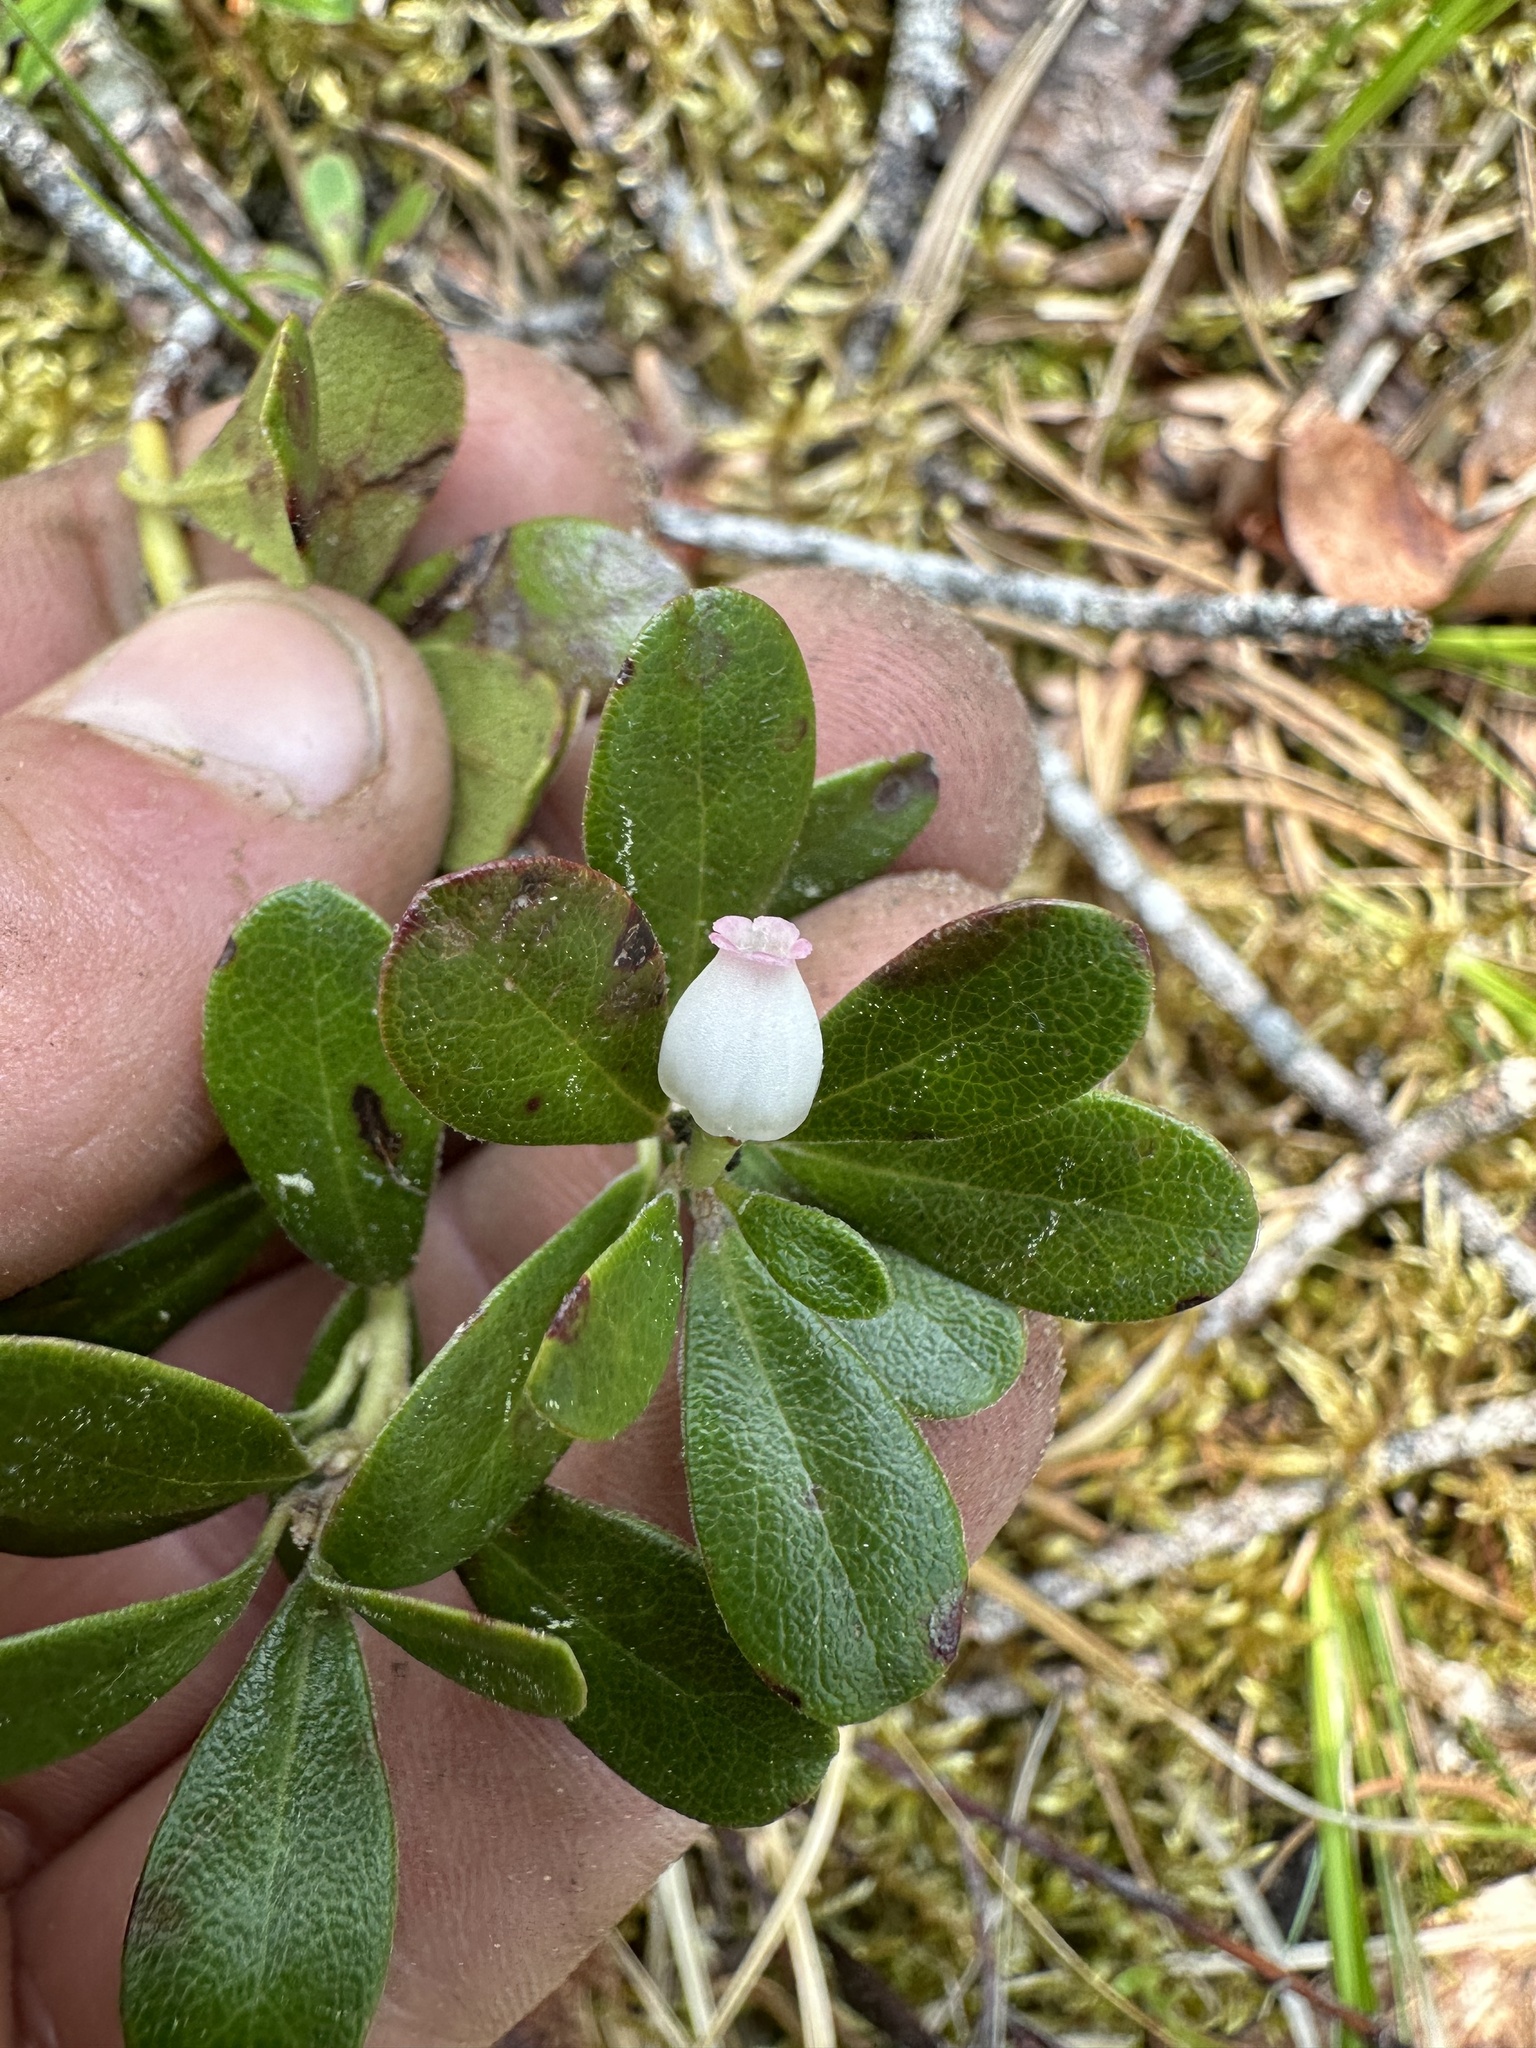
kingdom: Plantae
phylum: Tracheophyta
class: Magnoliopsida
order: Ericales
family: Ericaceae
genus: Arctostaphylos
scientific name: Arctostaphylos uva-ursi
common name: Bearberry
